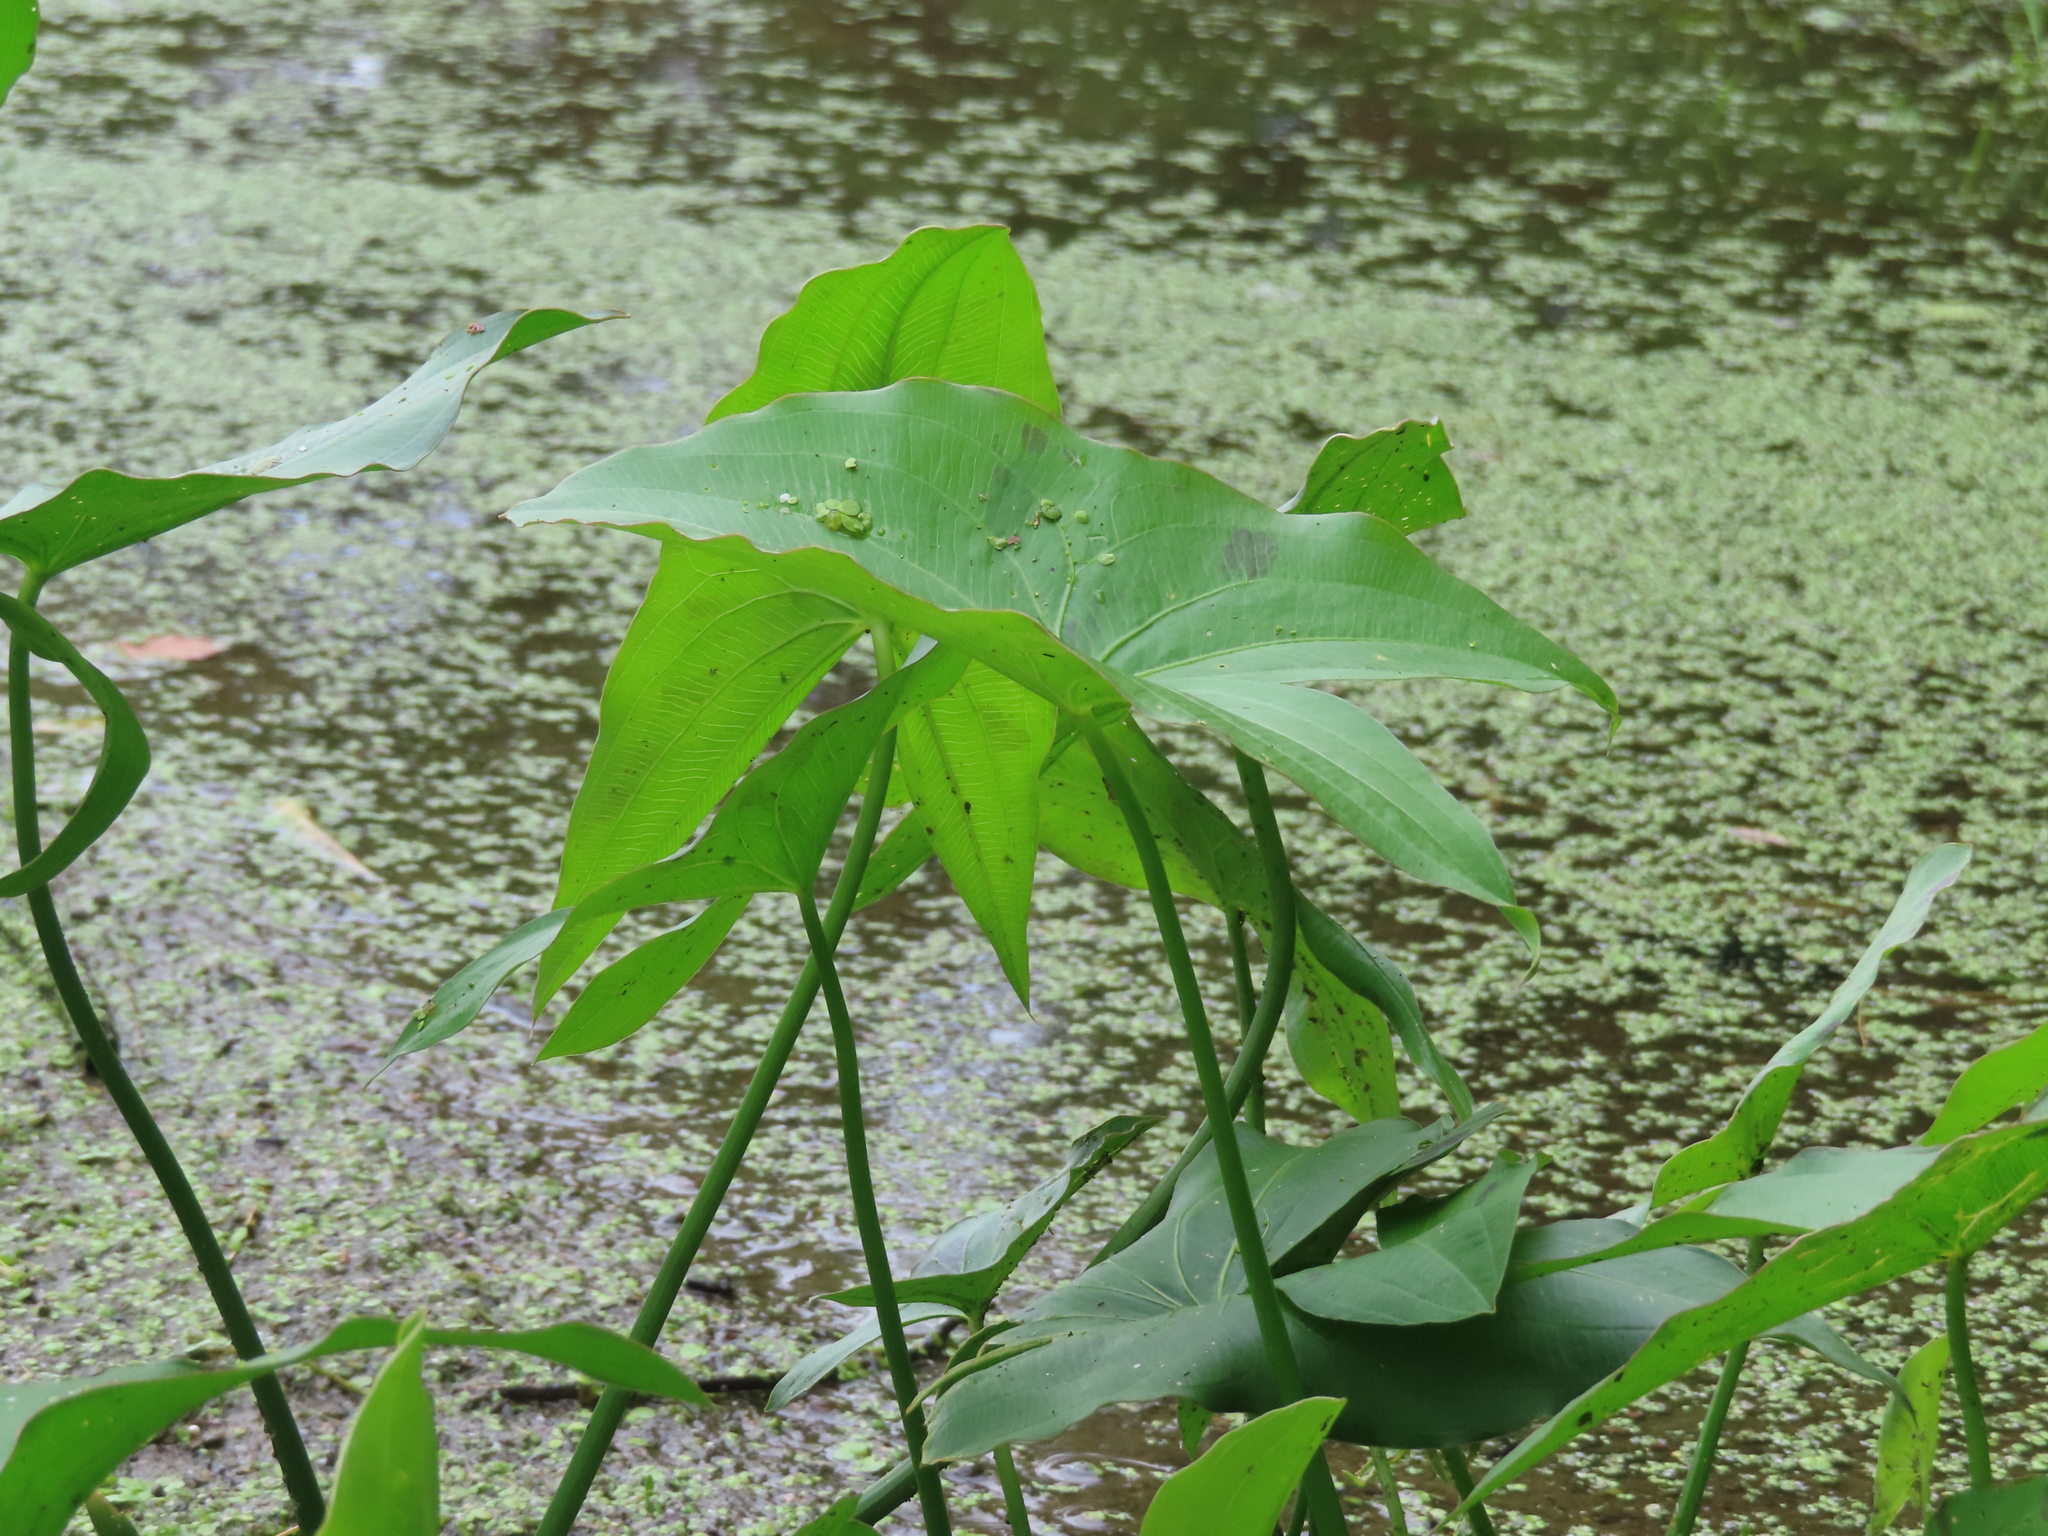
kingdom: Plantae
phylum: Tracheophyta
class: Liliopsida
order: Alismatales
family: Alismataceae
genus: Sagittaria
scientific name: Sagittaria
